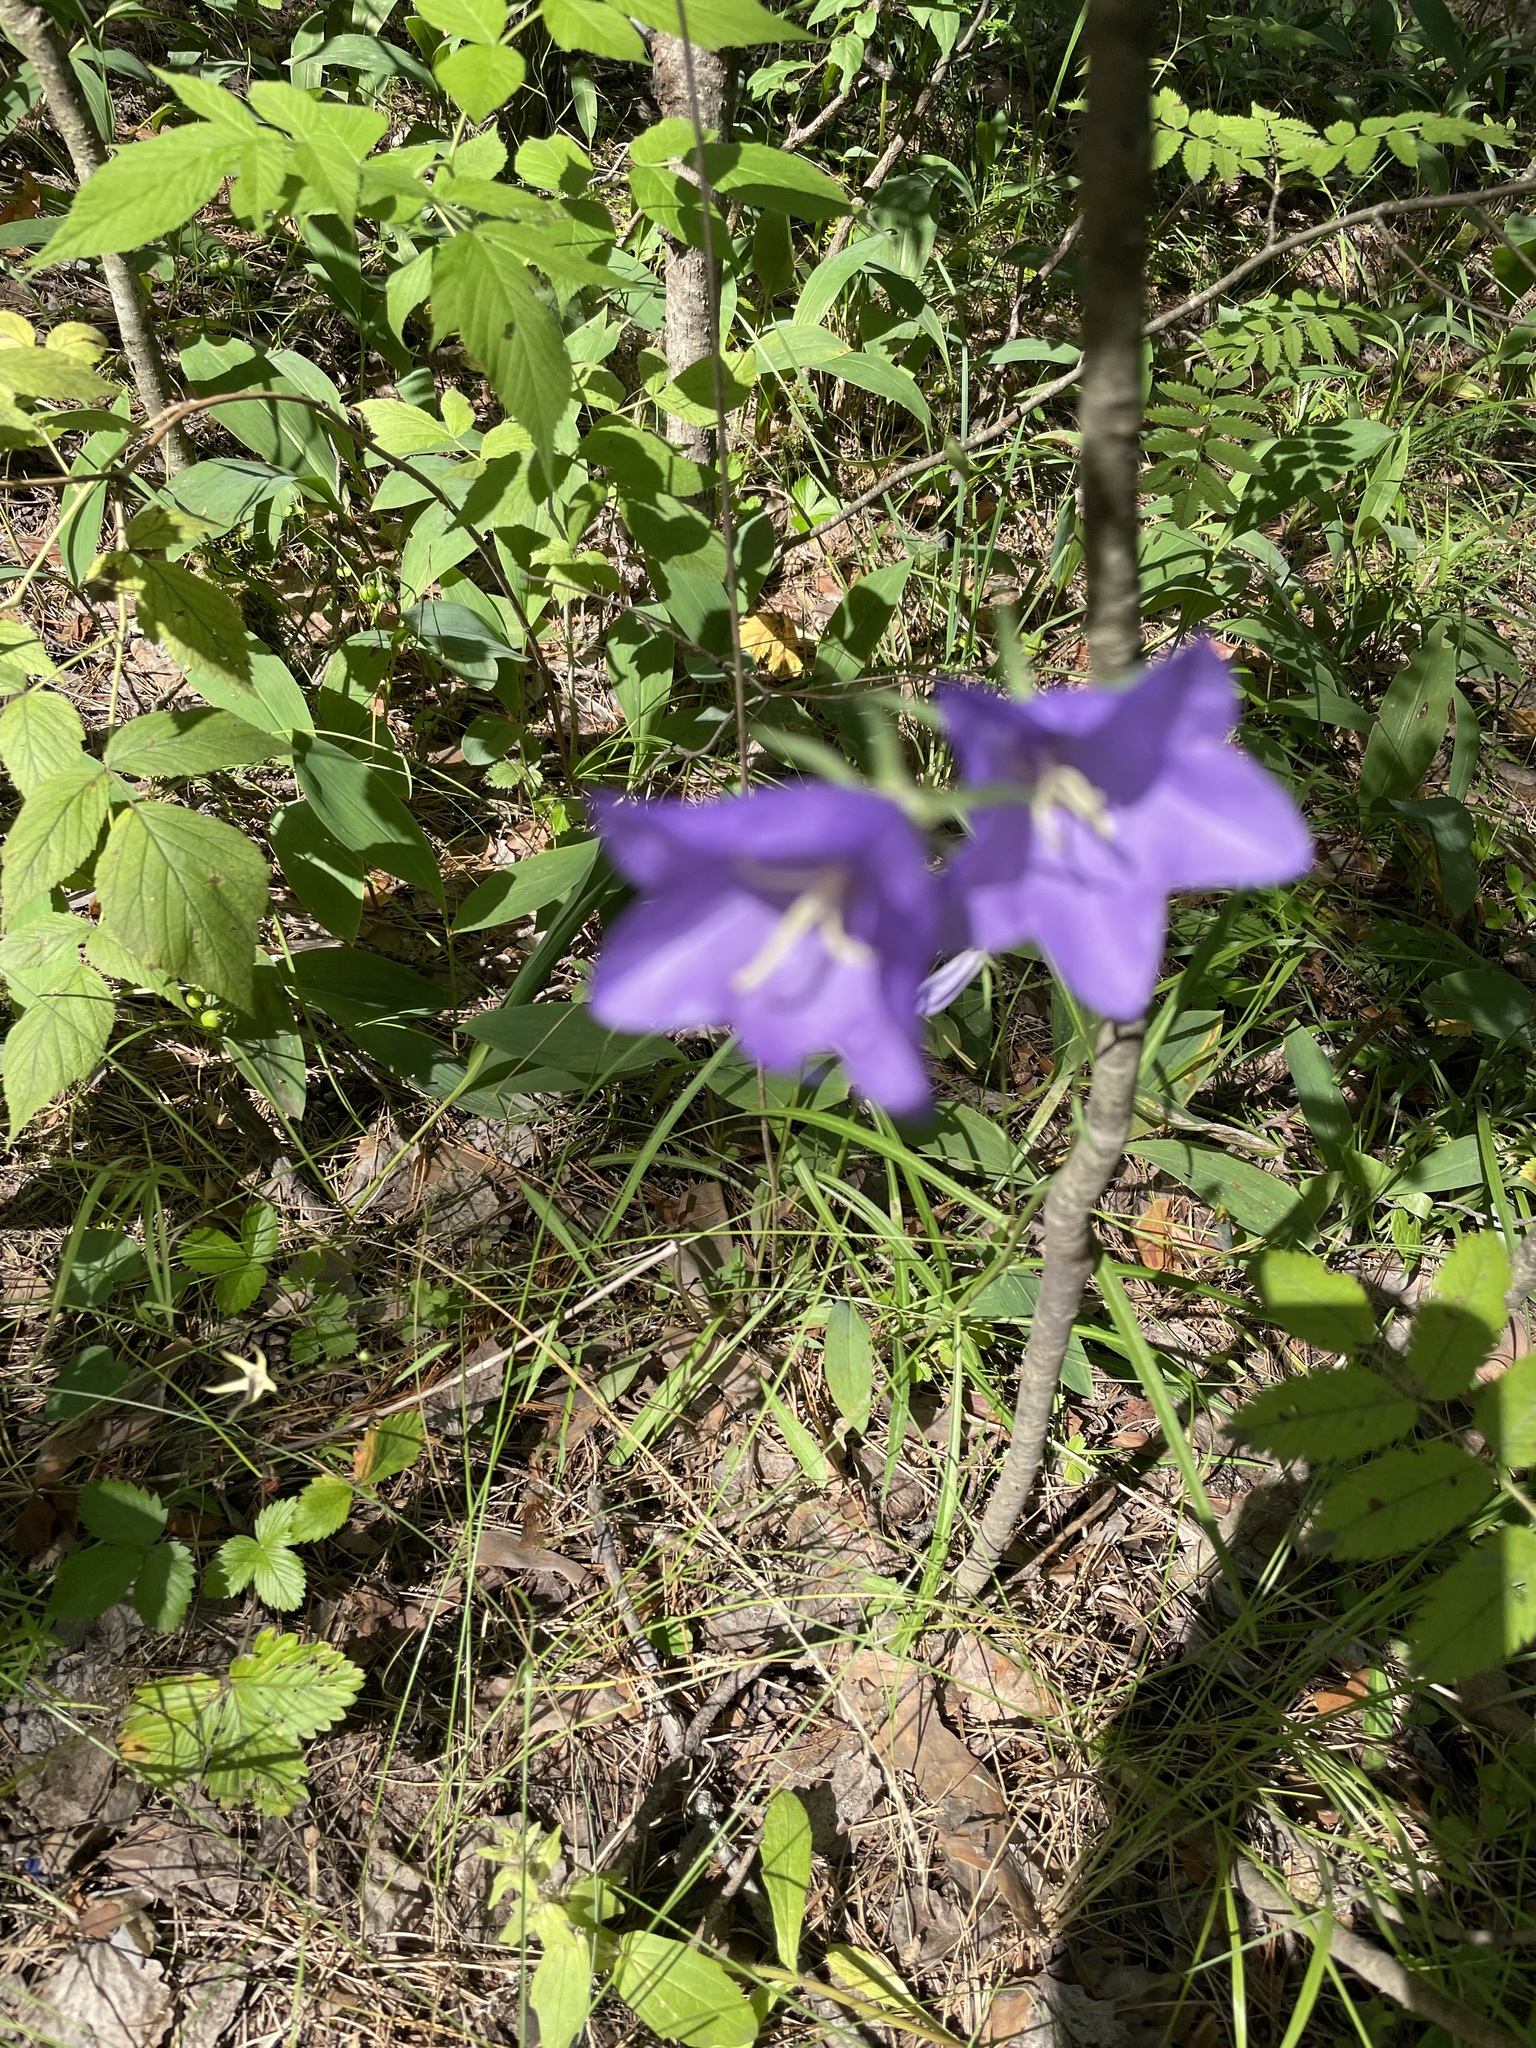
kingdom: Plantae
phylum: Tracheophyta
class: Magnoliopsida
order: Asterales
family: Campanulaceae
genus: Campanula
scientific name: Campanula persicifolia
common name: Peach-leaved bellflower
